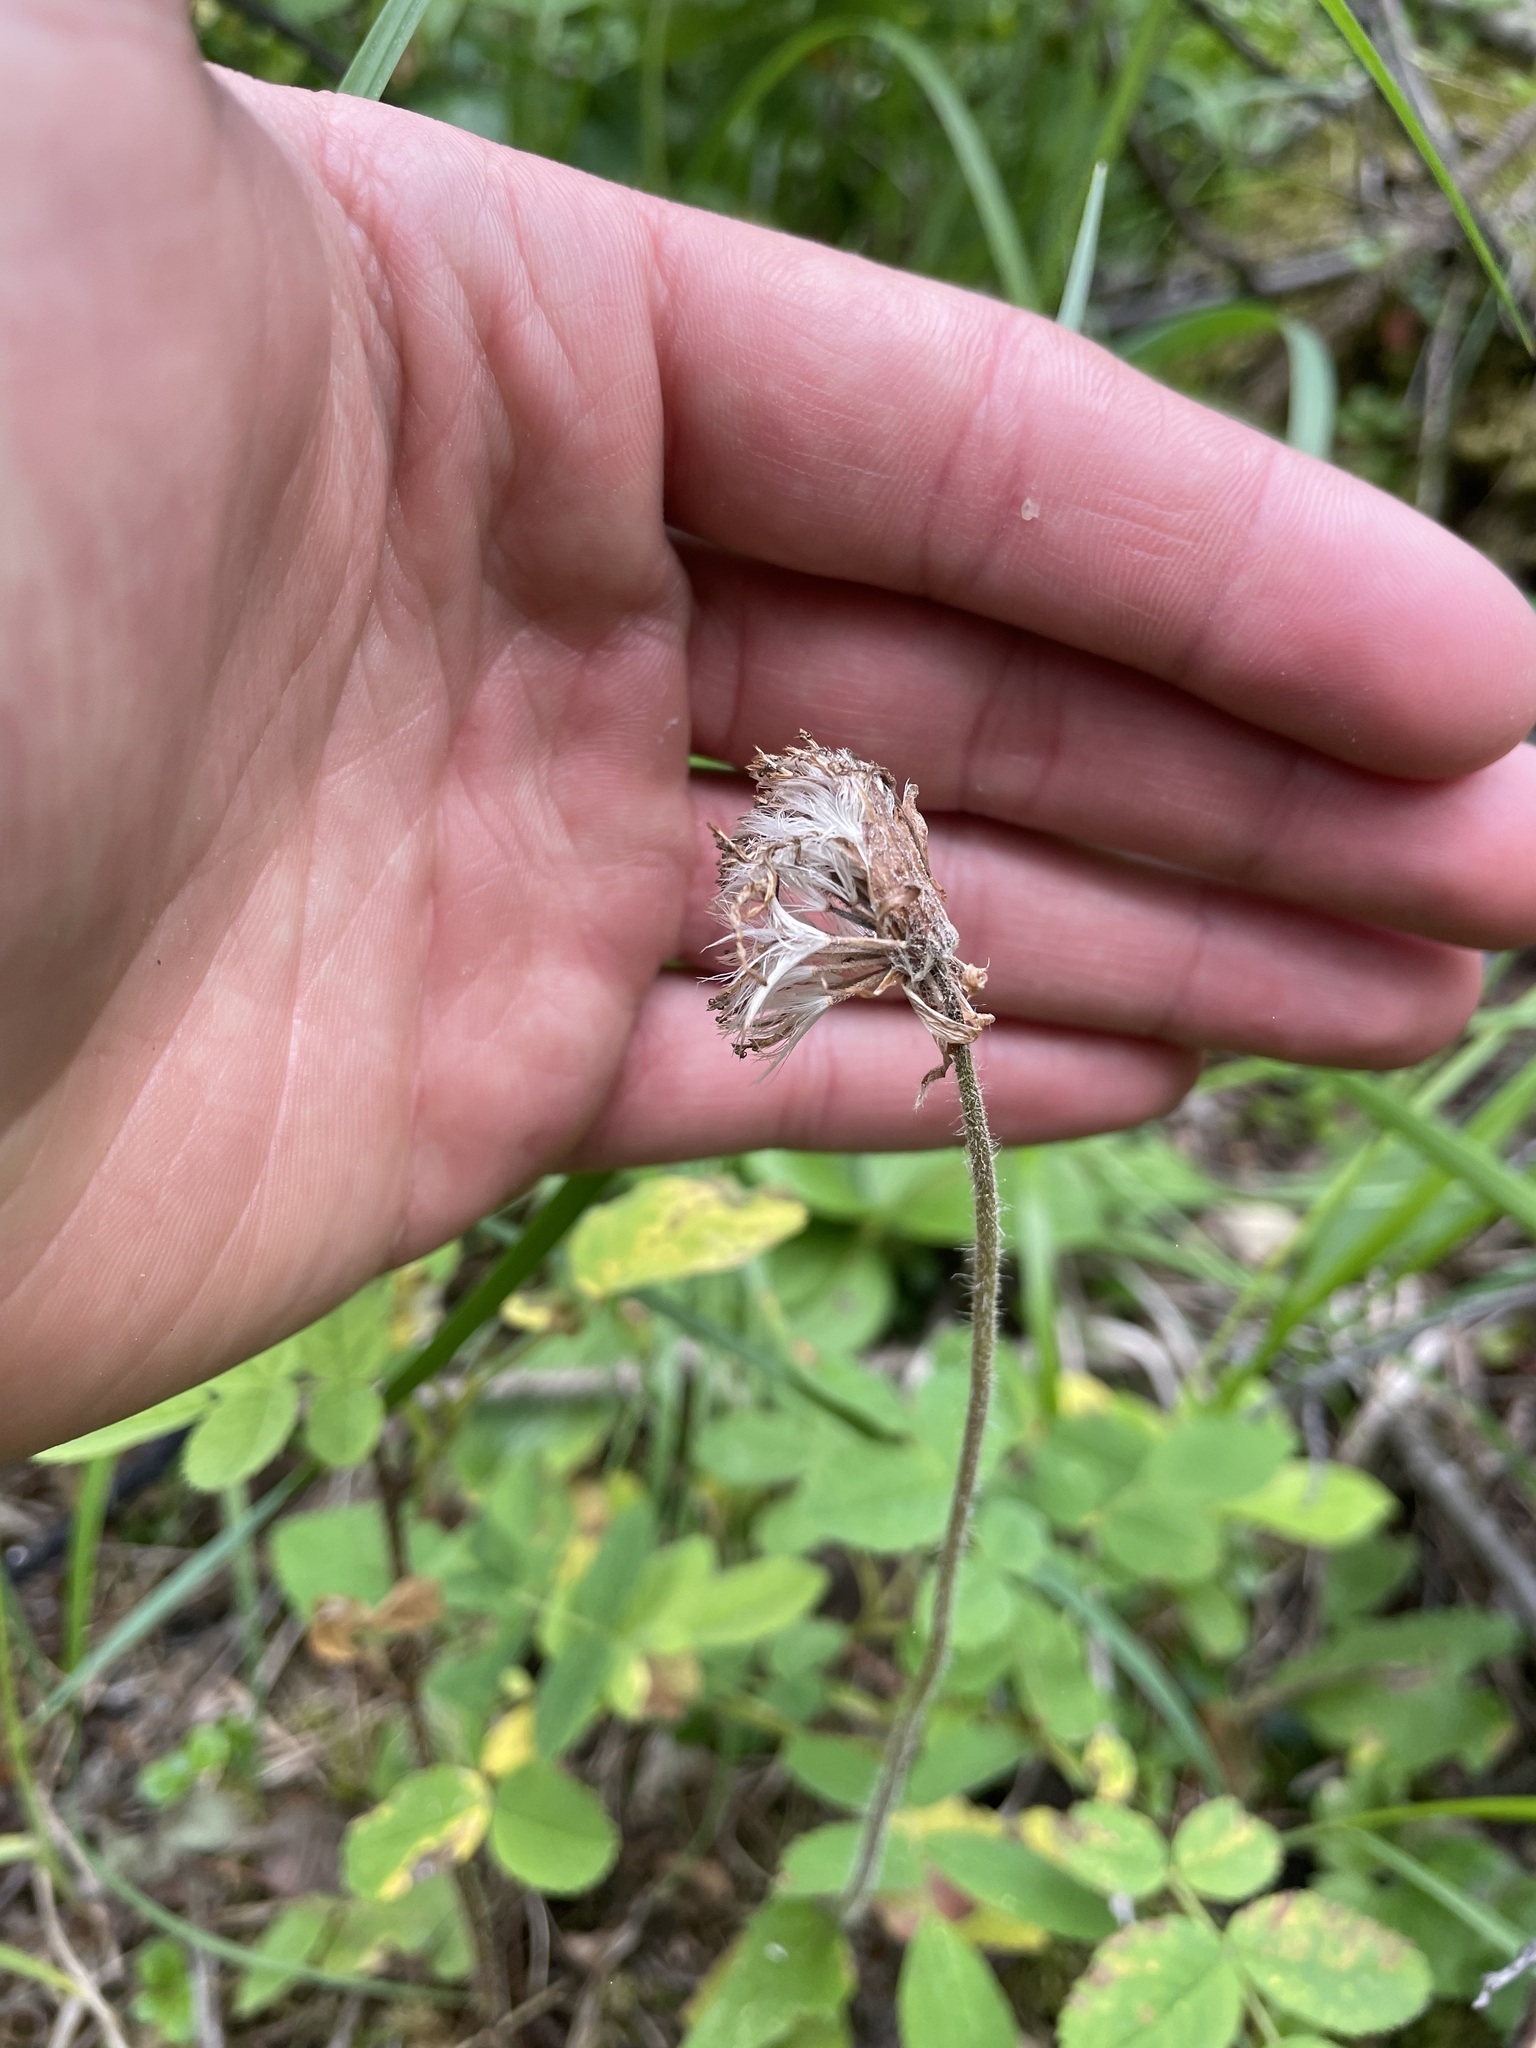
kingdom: Plantae
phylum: Tracheophyta
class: Magnoliopsida
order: Asterales
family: Asteraceae
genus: Arnica
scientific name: Arnica cordifolia
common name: Heart-leaf arnica
